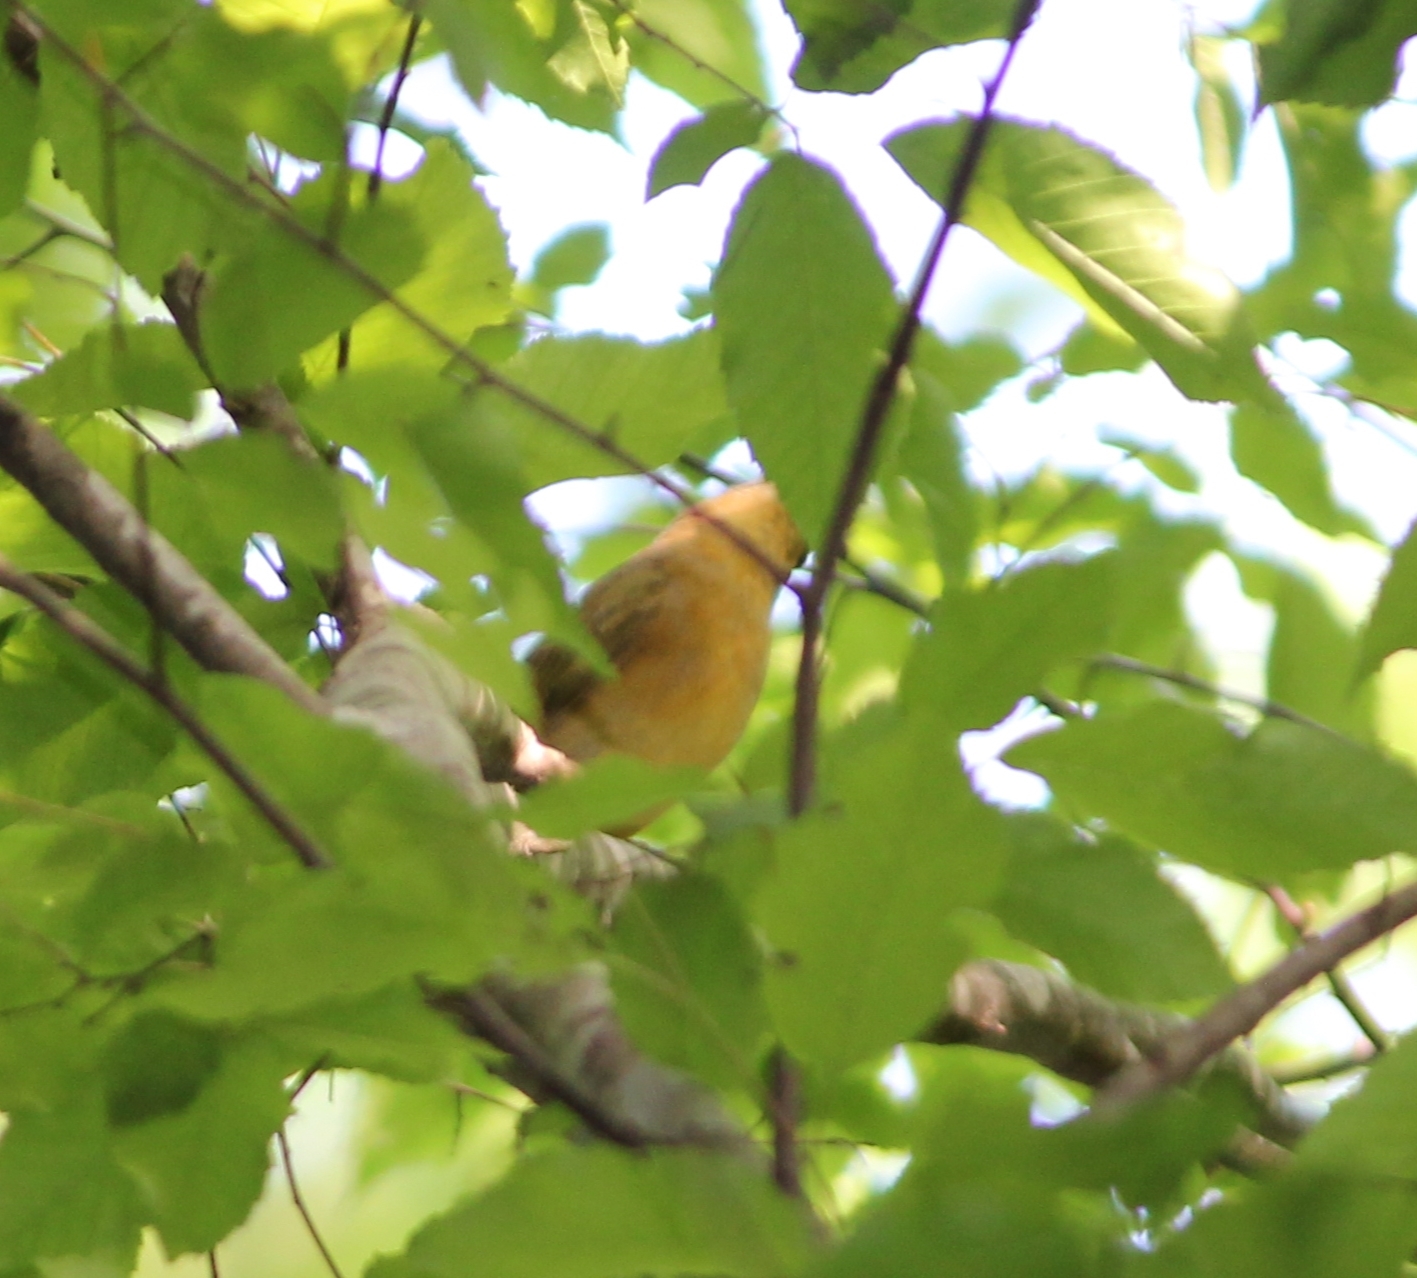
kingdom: Animalia
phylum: Chordata
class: Aves
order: Passeriformes
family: Cardinalidae
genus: Piranga
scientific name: Piranga rubra
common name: Summer tanager
